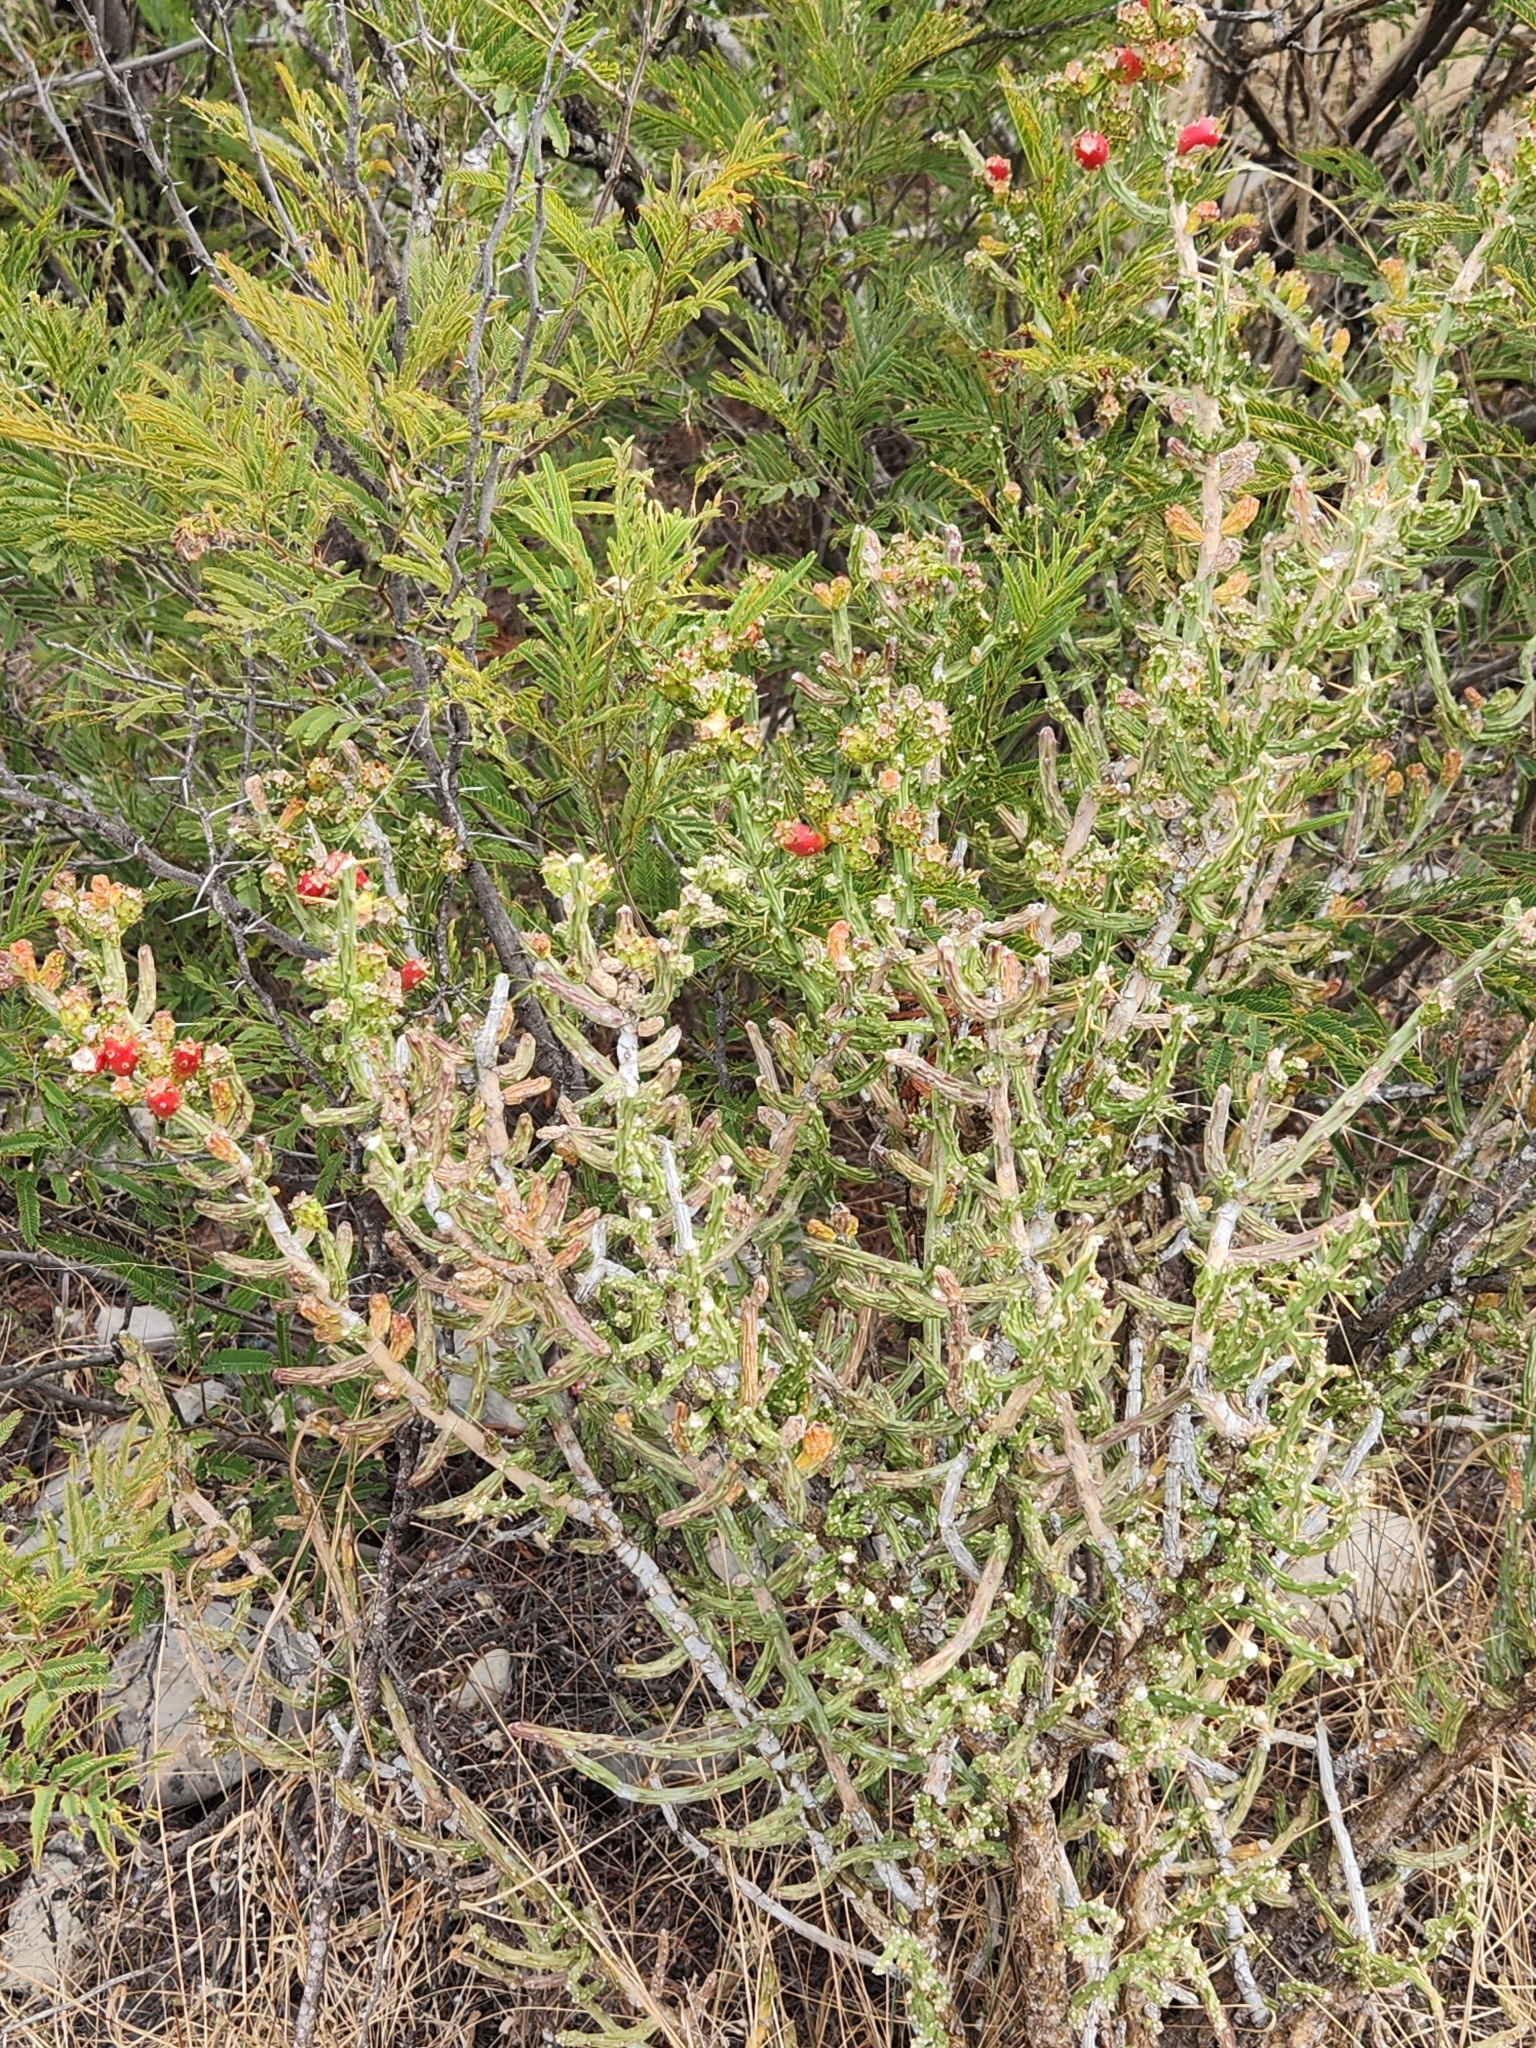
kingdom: Plantae
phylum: Tracheophyta
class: Magnoliopsida
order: Caryophyllales
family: Cactaceae
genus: Cylindropuntia
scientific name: Cylindropuntia leptocaulis
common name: Christmas cactus
